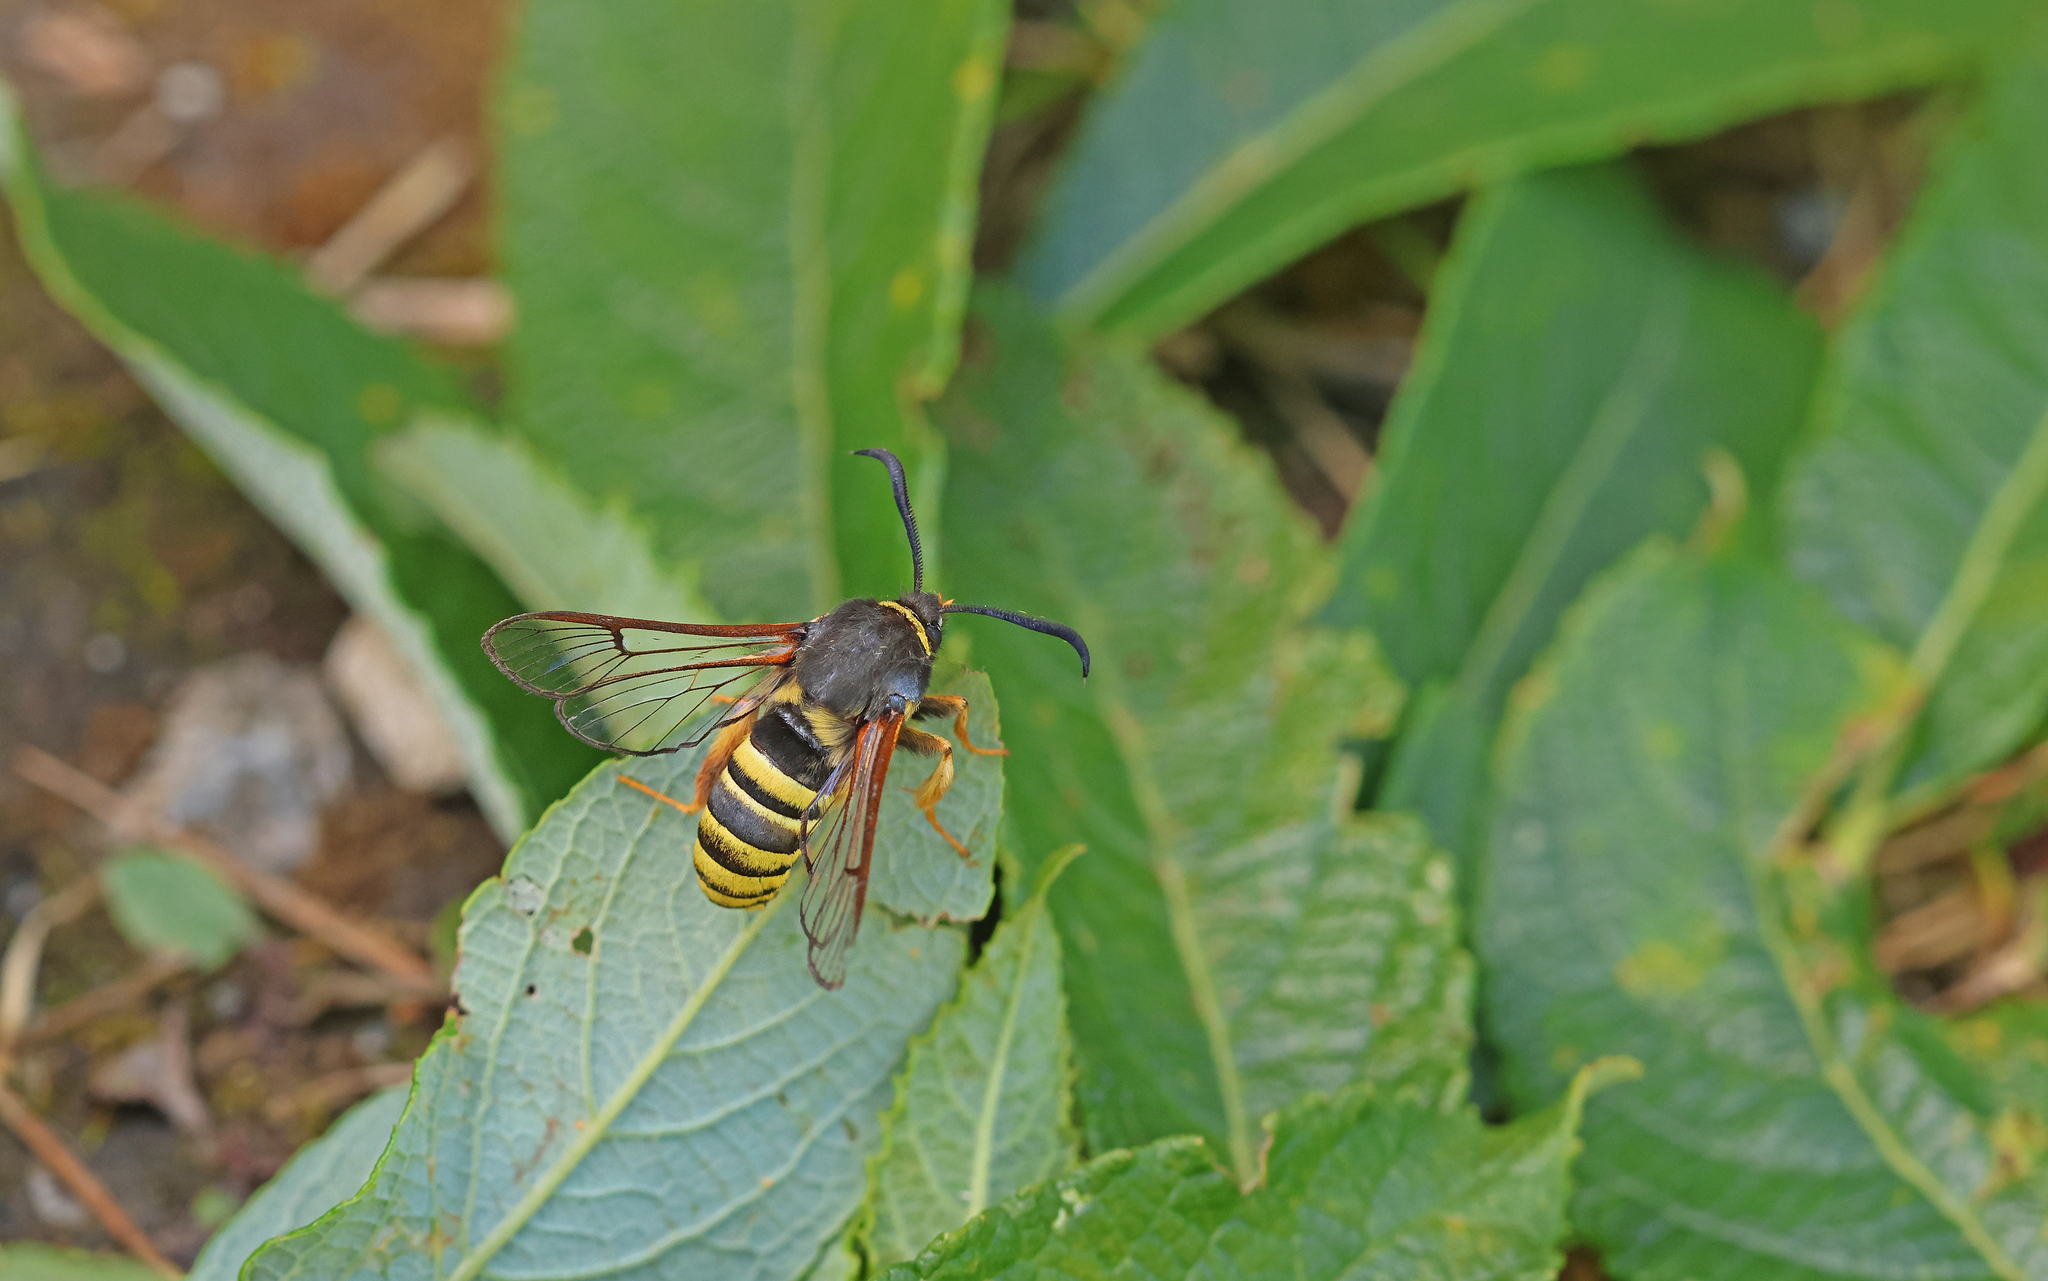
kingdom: Animalia
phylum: Arthropoda
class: Insecta
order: Lepidoptera
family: Sesiidae
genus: Sesia
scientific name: Sesia bembeciformis
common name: Lunar hornet moth
